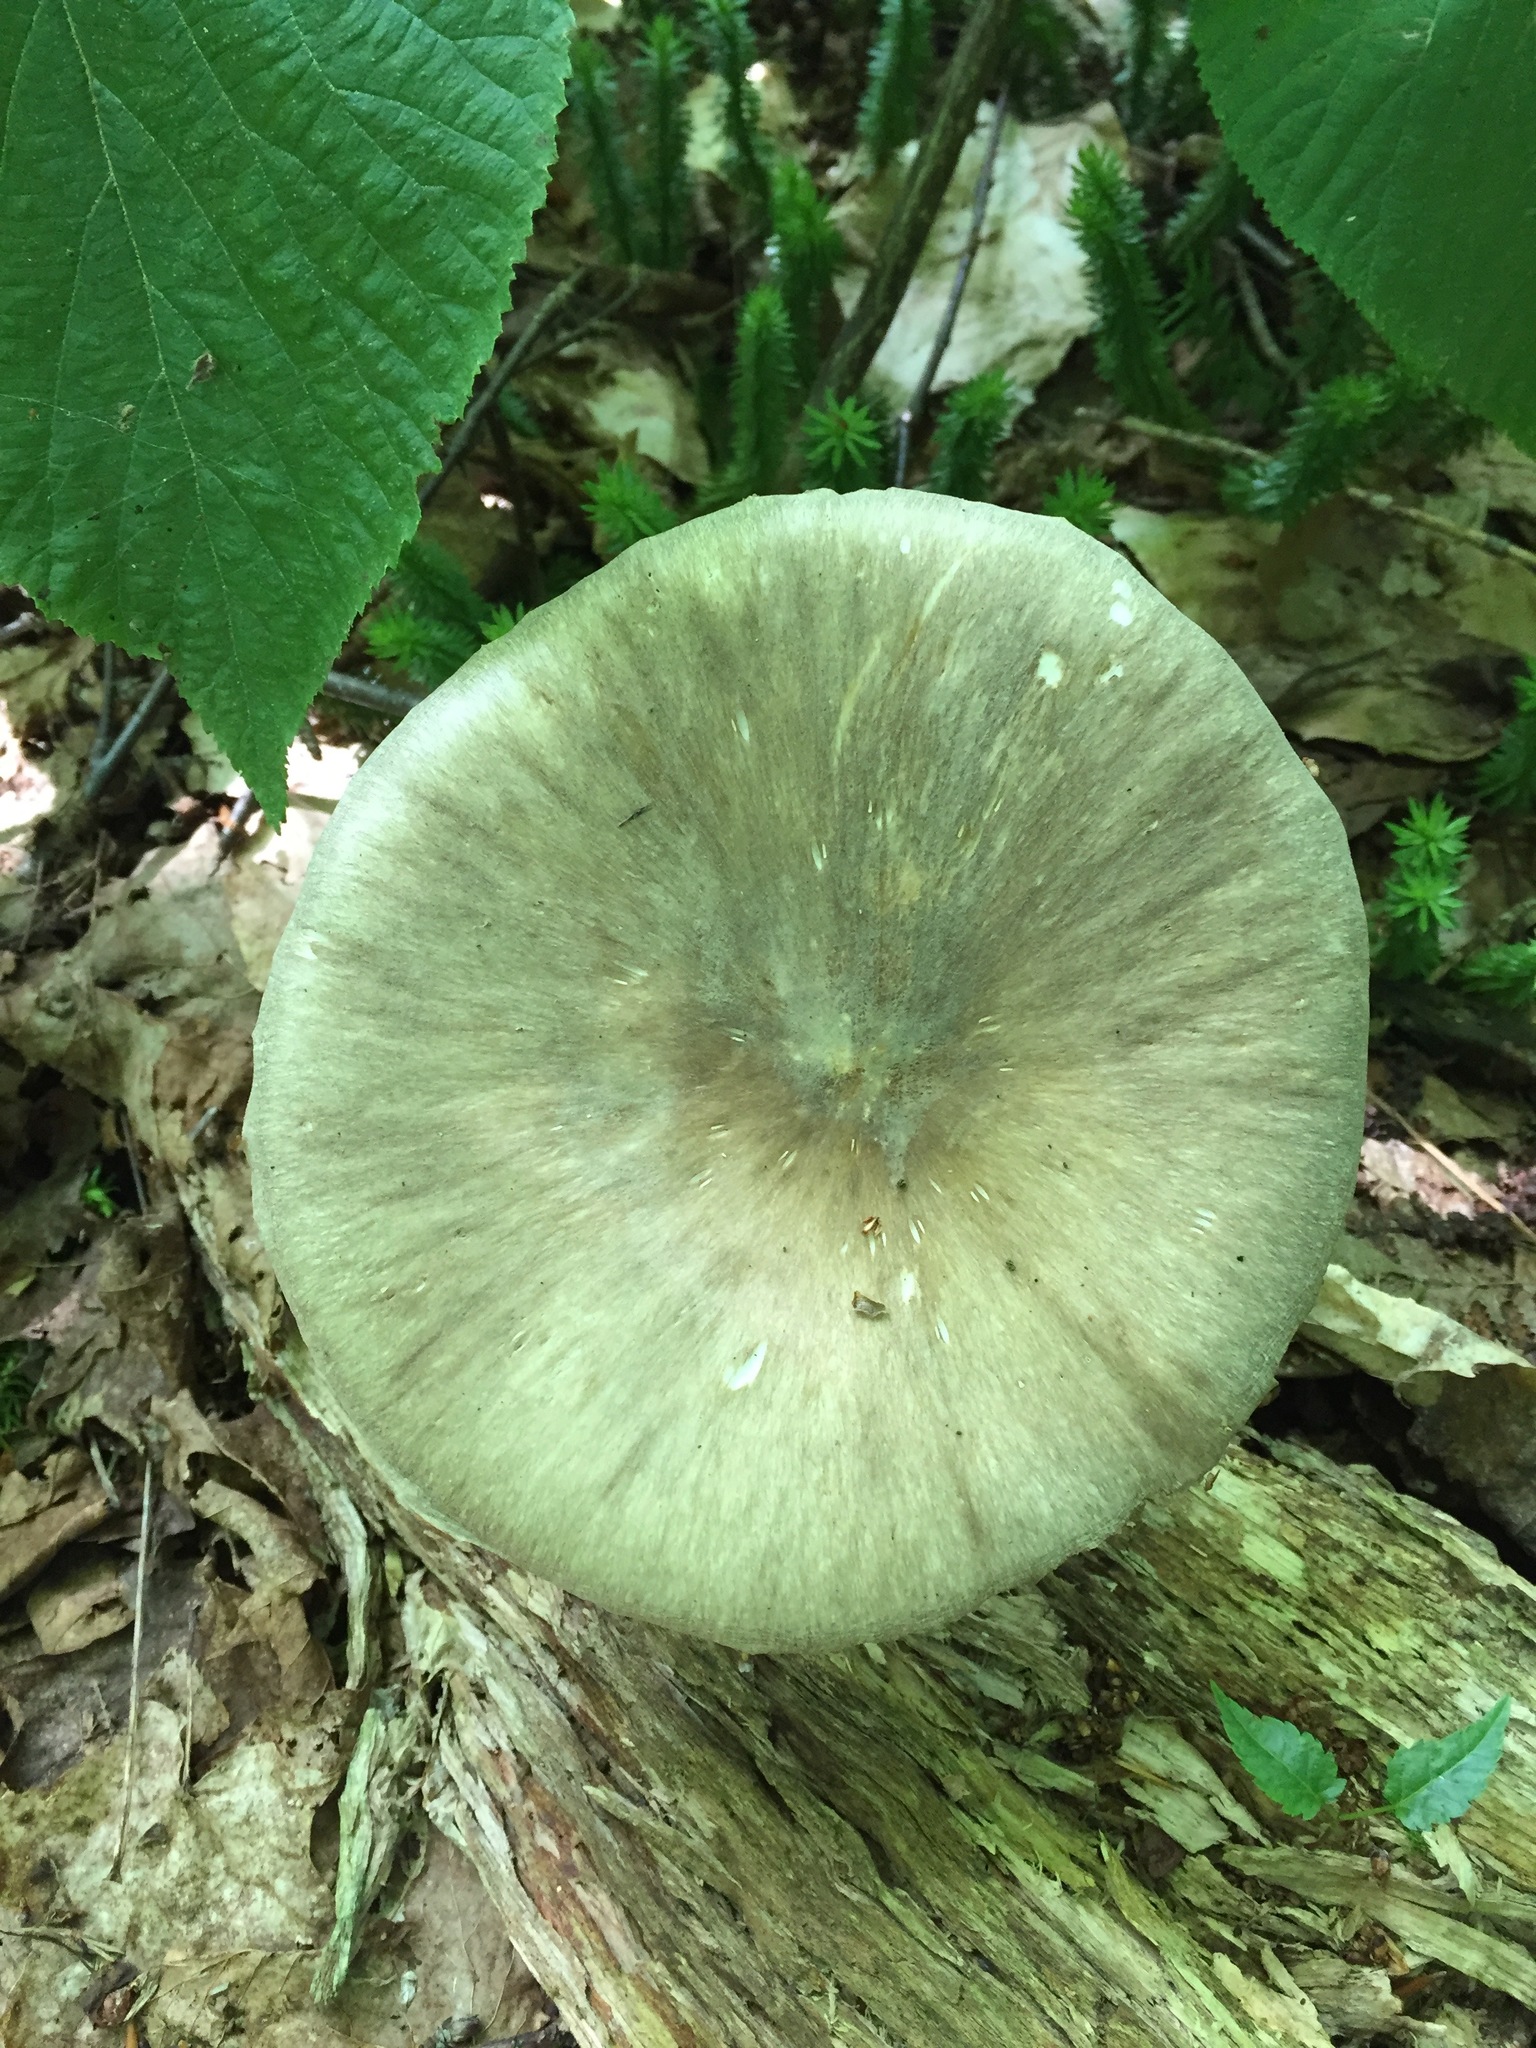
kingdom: Fungi
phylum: Basidiomycota
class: Agaricomycetes
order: Agaricales
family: Tricholomataceae
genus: Megacollybia
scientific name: Megacollybia rodmanii
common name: Eastern american platterful mushroom
